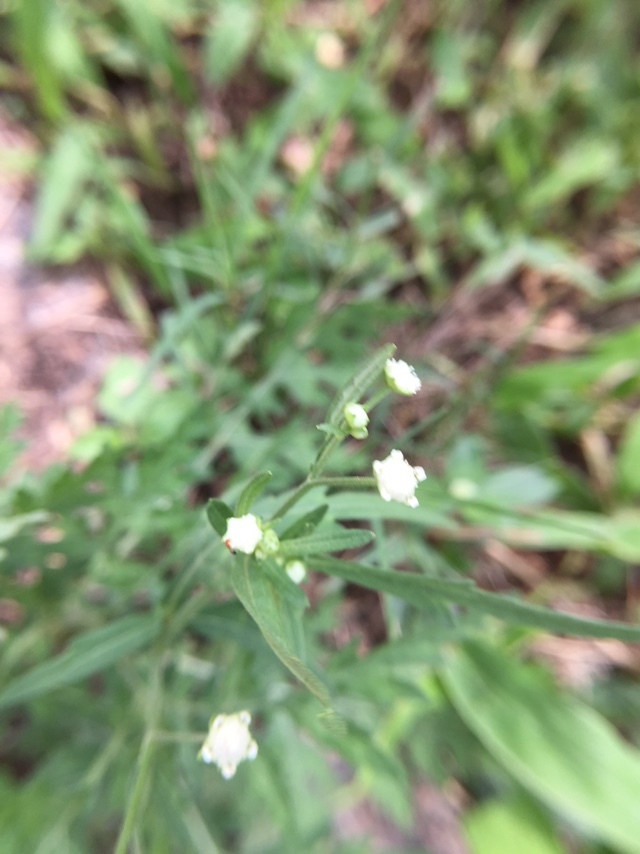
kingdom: Plantae
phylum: Tracheophyta
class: Magnoliopsida
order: Asterales
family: Asteraceae
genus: Parthenium
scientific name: Parthenium hysterophorus
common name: Santa maria feverfew
